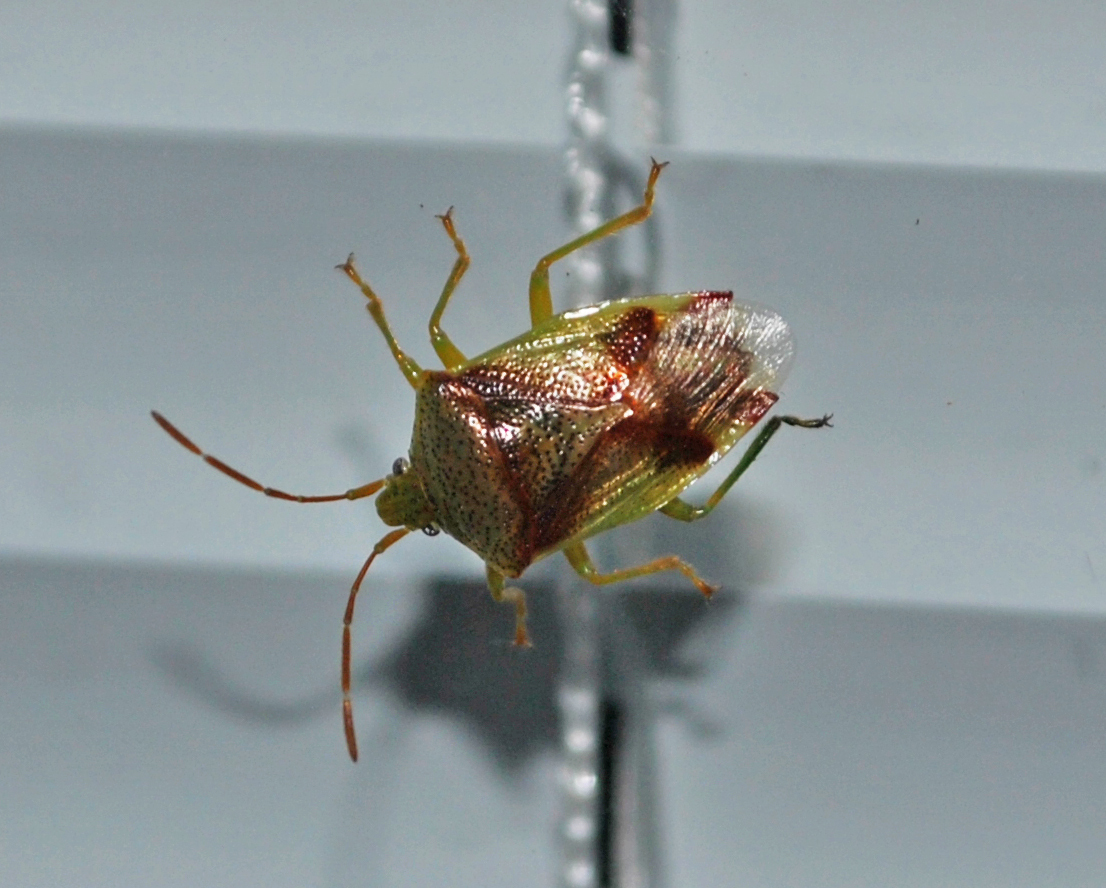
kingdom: Animalia
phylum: Arthropoda
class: Insecta
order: Hemiptera
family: Acanthosomatidae
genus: Elasmostethus
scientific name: Elasmostethus cruciatus
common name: Red-cross shield bug
